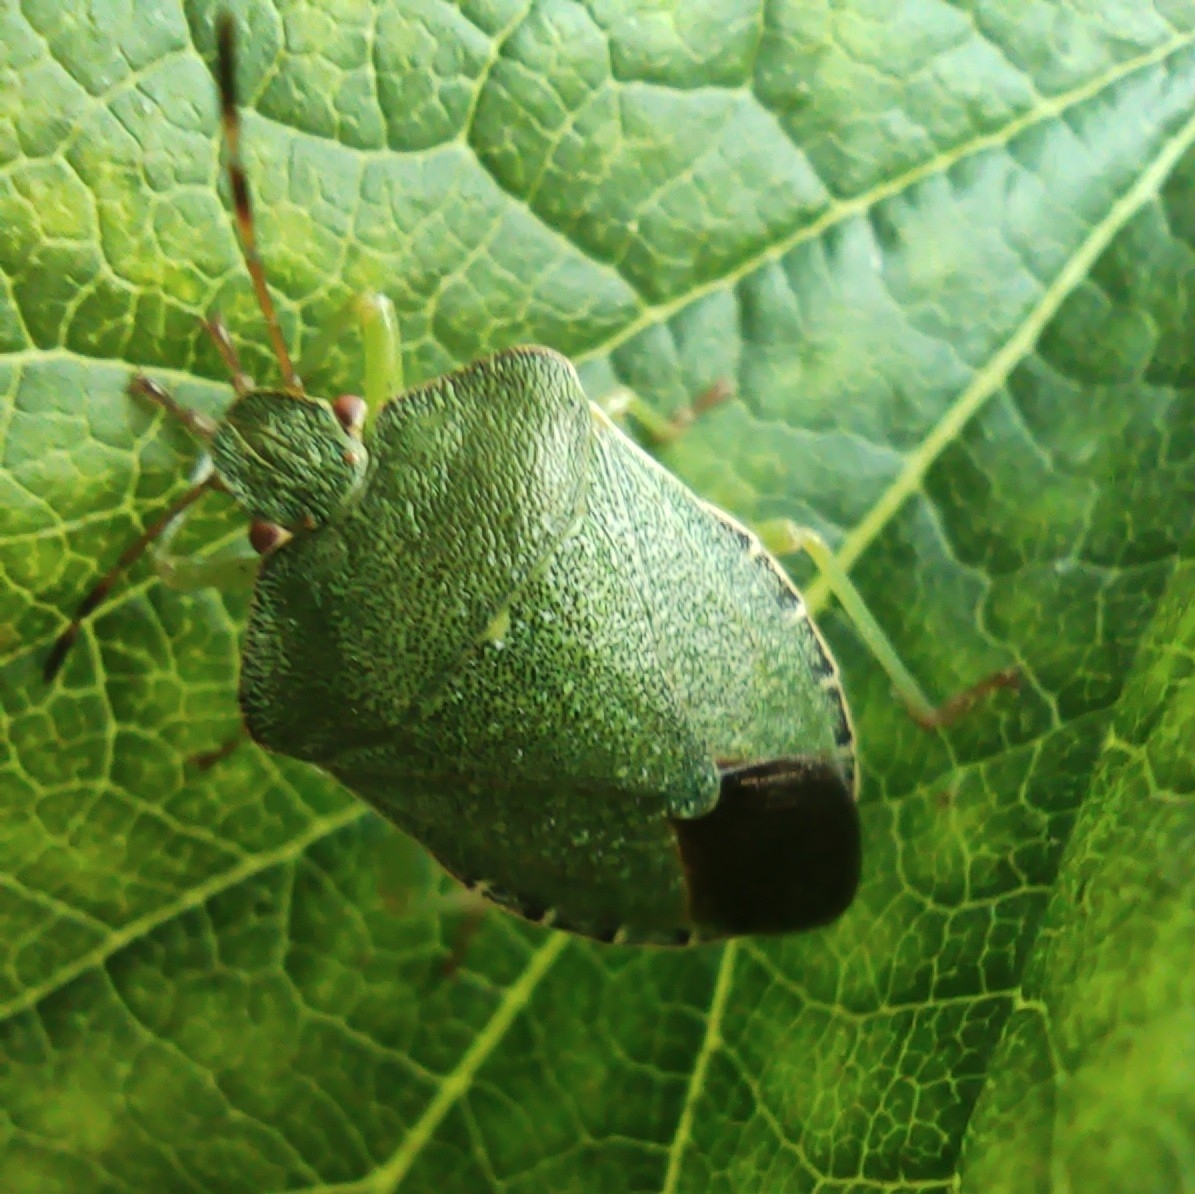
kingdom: Animalia
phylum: Arthropoda
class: Insecta
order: Hemiptera
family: Pentatomidae
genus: Palomena
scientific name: Palomena prasina
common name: Green shieldbug
